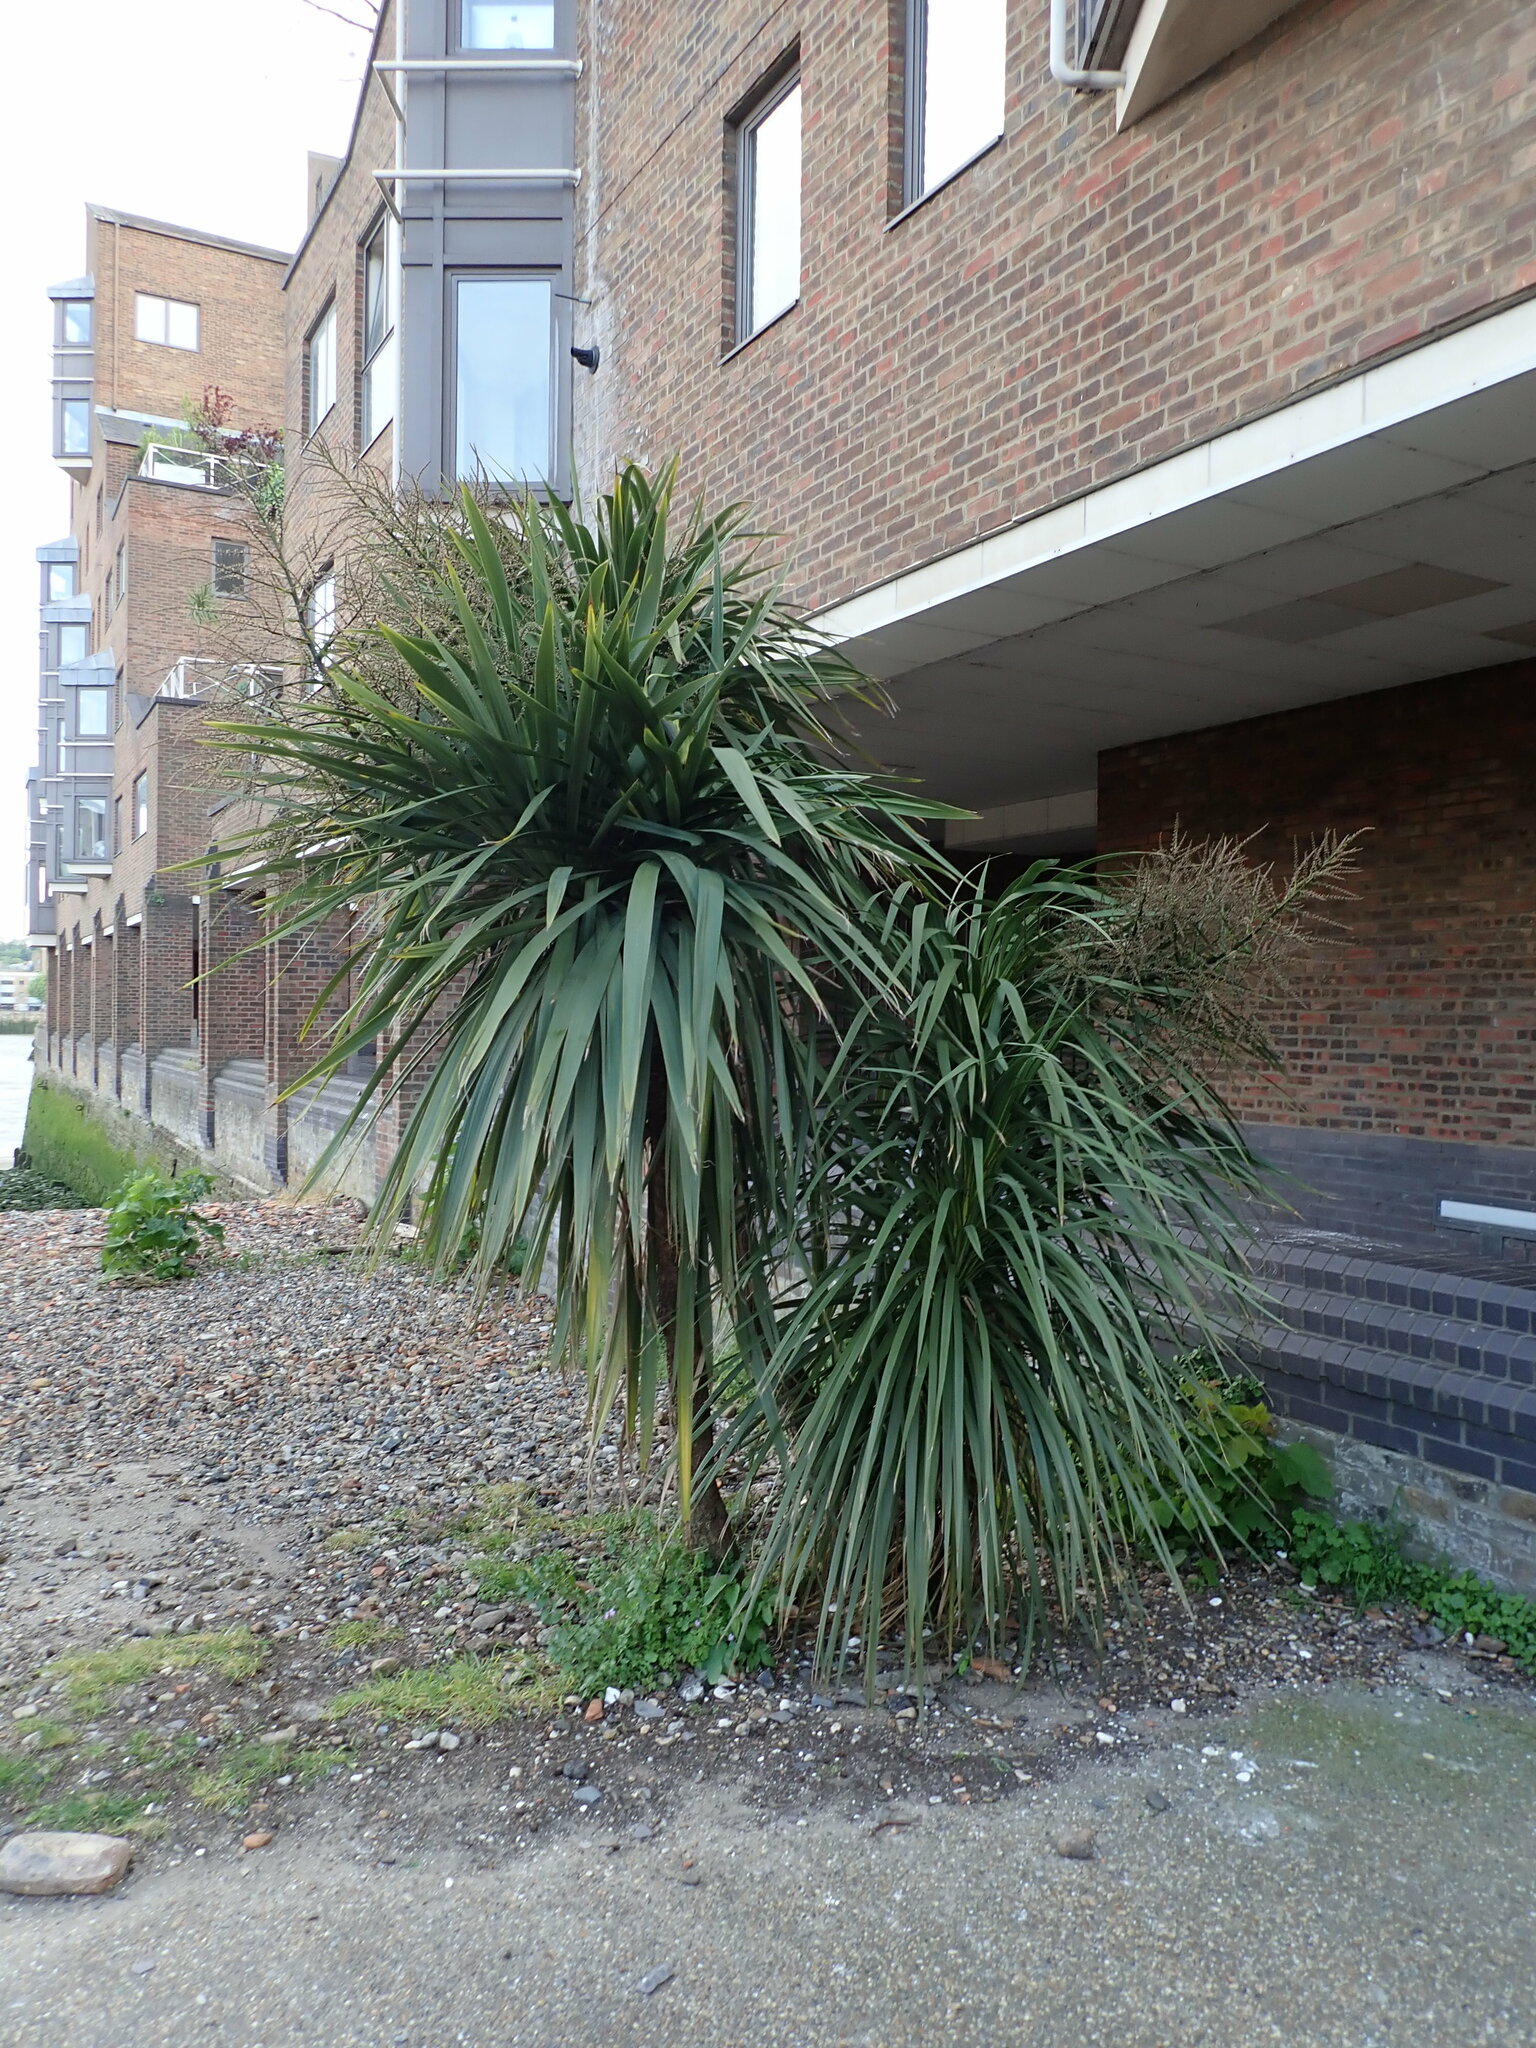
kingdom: Plantae
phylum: Tracheophyta
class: Liliopsida
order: Asparagales
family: Asparagaceae
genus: Cordyline
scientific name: Cordyline australis
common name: Cabbage-palm
